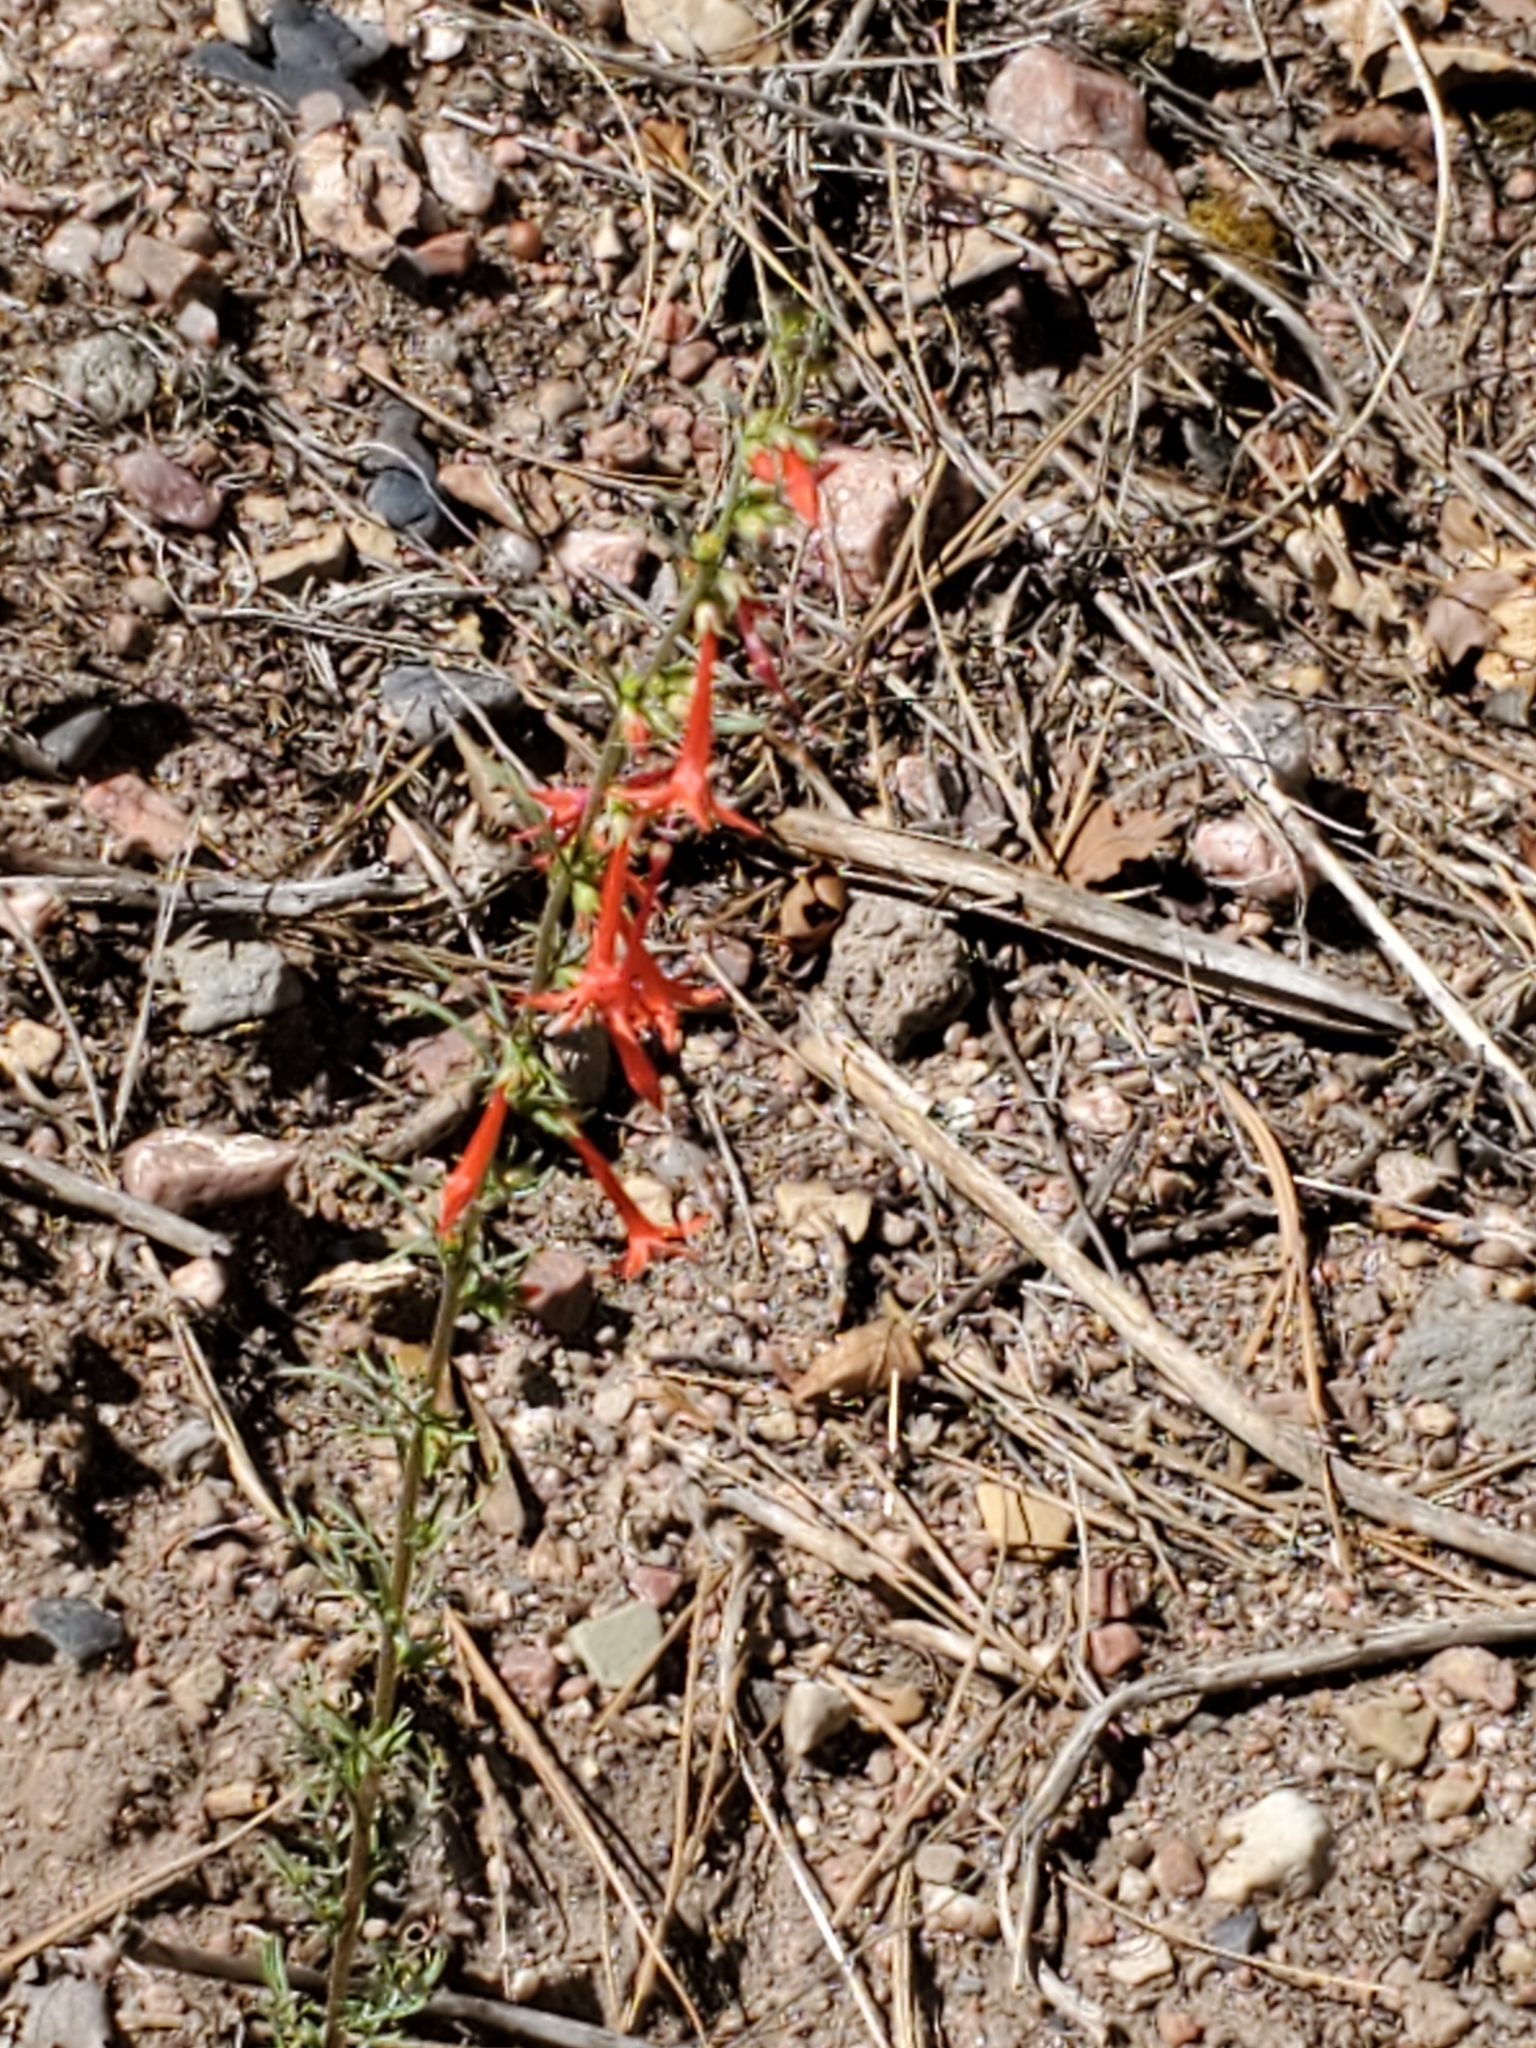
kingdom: Plantae
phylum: Tracheophyta
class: Magnoliopsida
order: Ericales
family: Polemoniaceae
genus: Ipomopsis
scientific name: Ipomopsis aggregata
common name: Scarlet gilia
